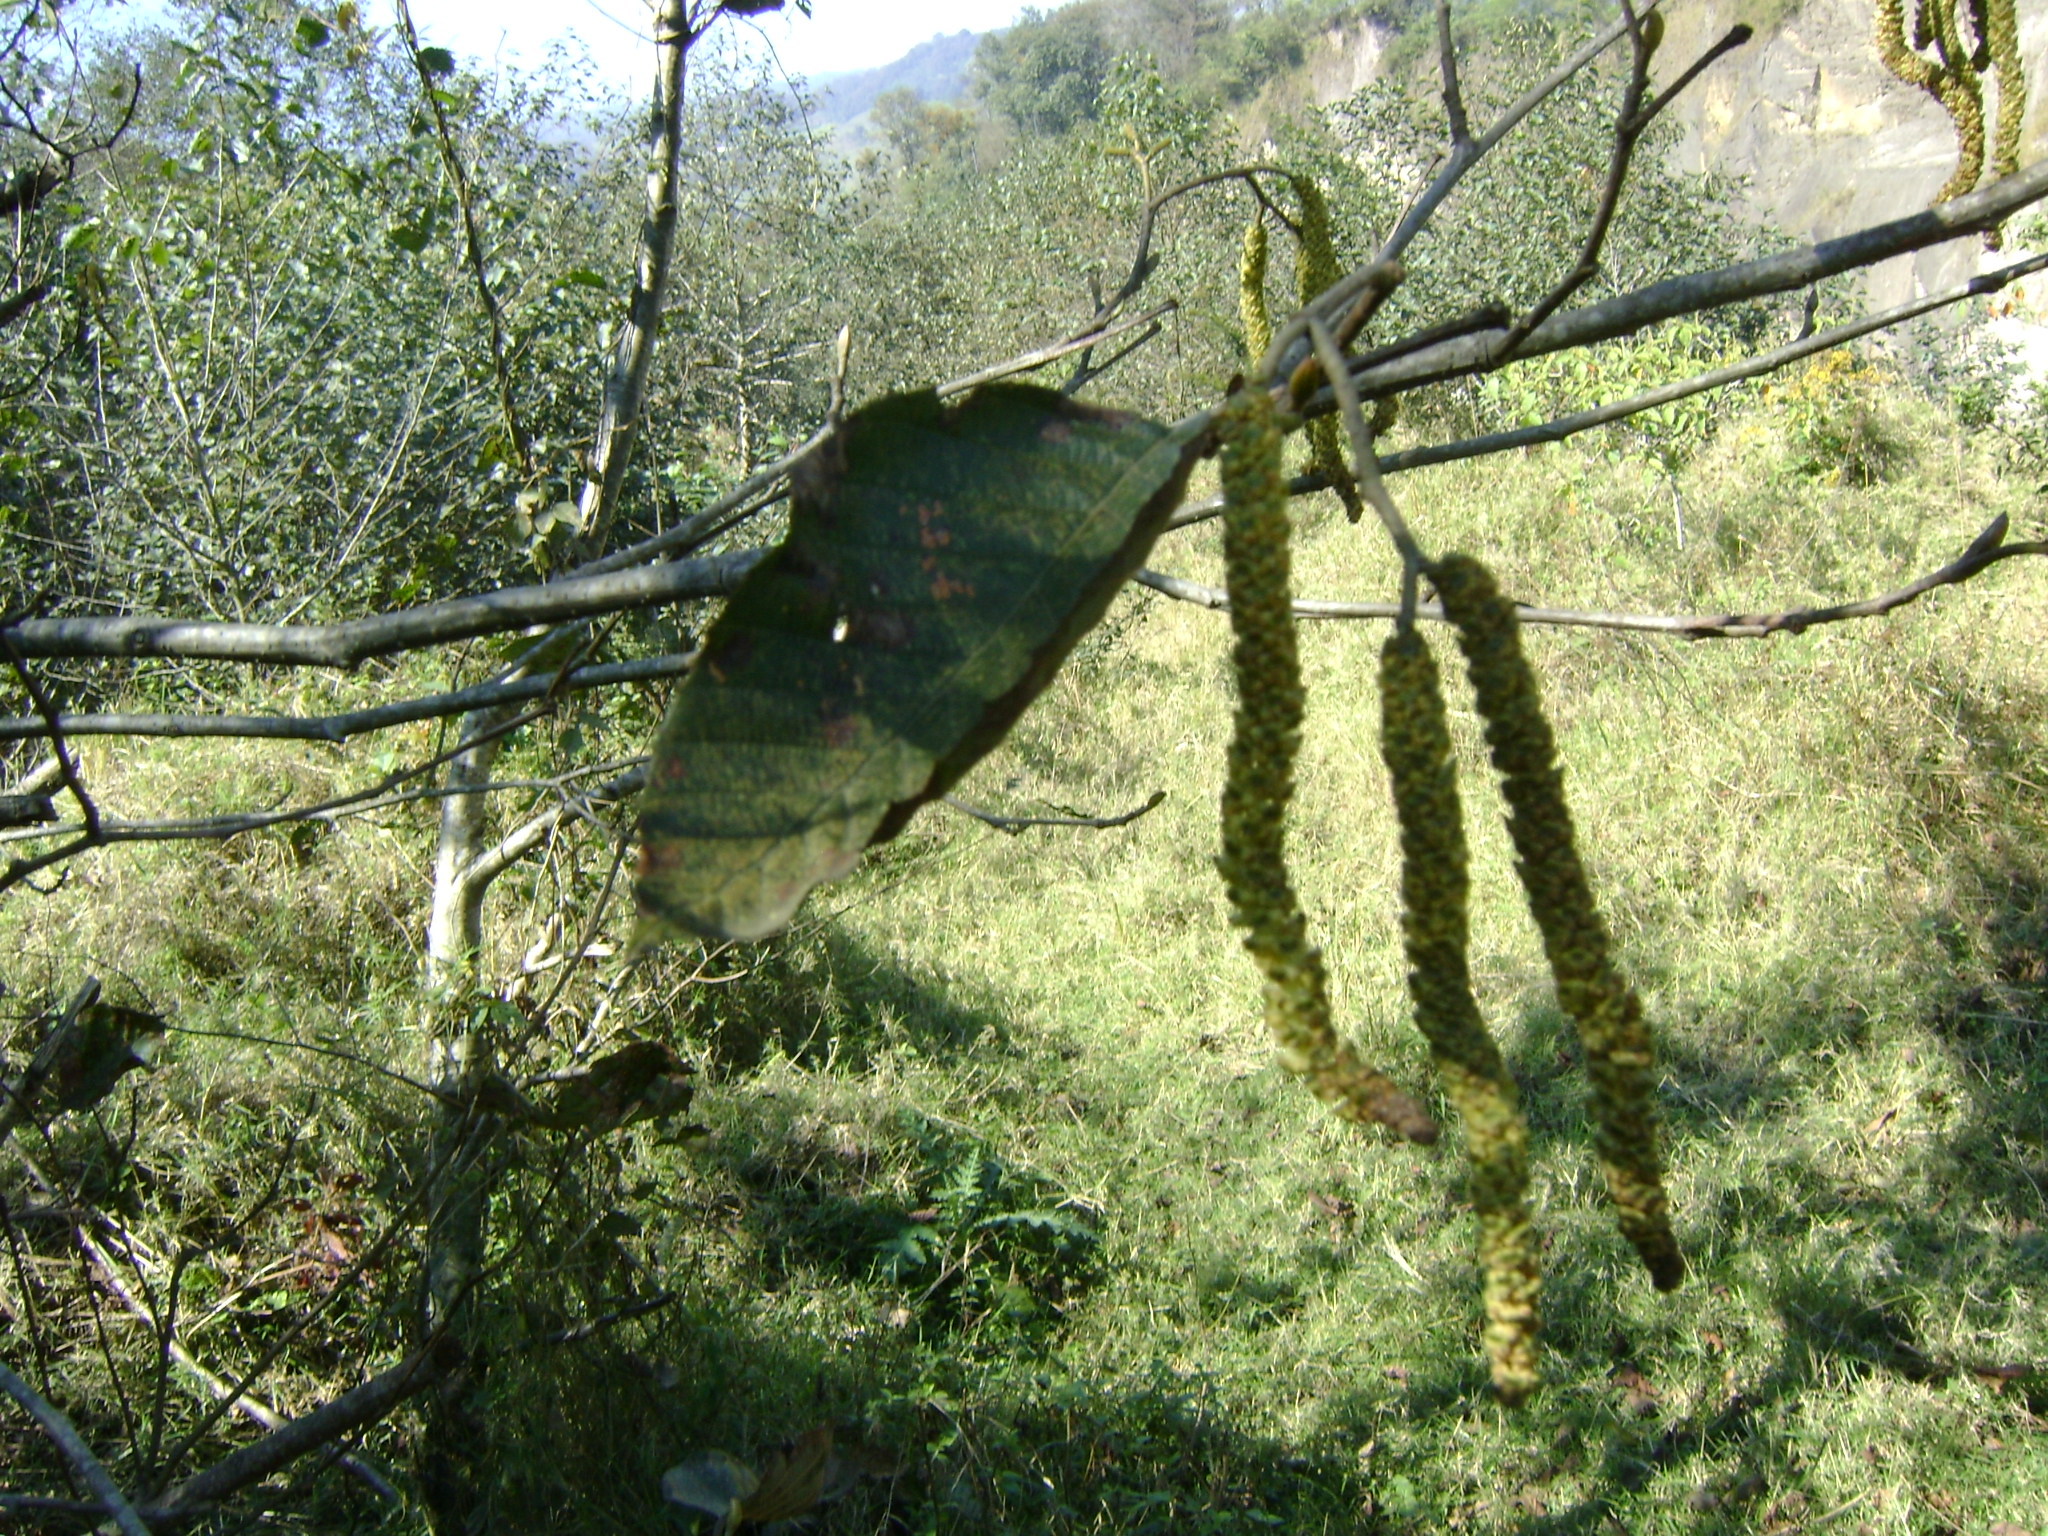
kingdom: Plantae
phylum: Tracheophyta
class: Magnoliopsida
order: Fagales
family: Betulaceae
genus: Alnus
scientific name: Alnus acuminata
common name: Alder
